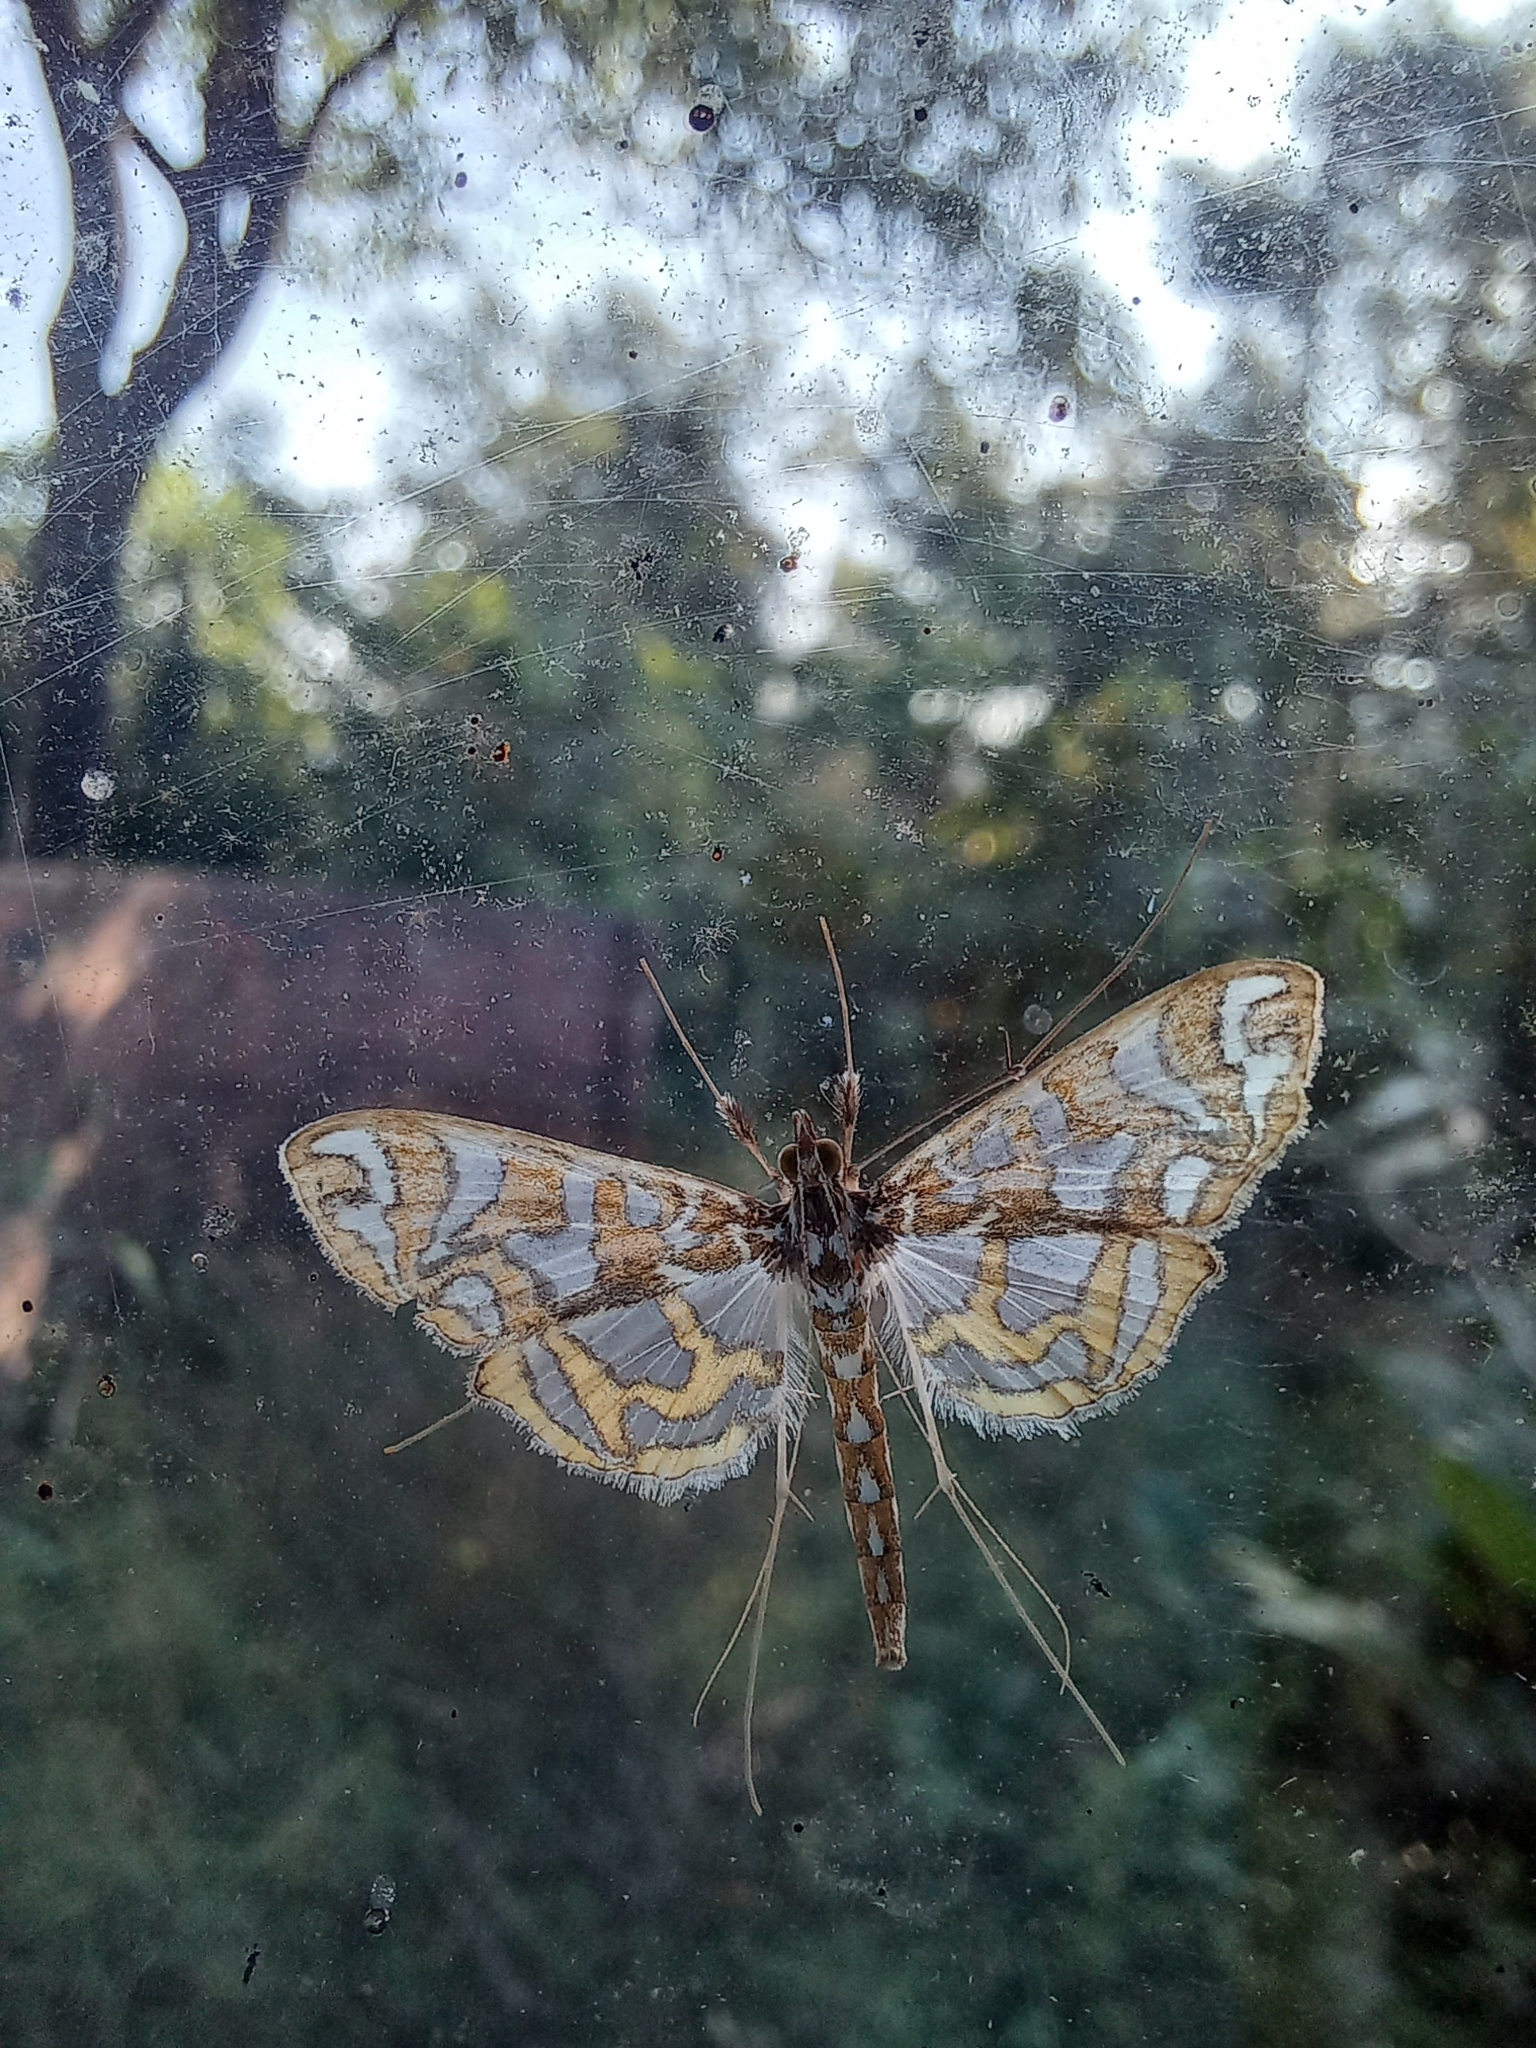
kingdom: Animalia
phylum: Arthropoda
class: Insecta
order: Lepidoptera
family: Crambidae
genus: Polythlipta
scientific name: Polythlipta annulifera
